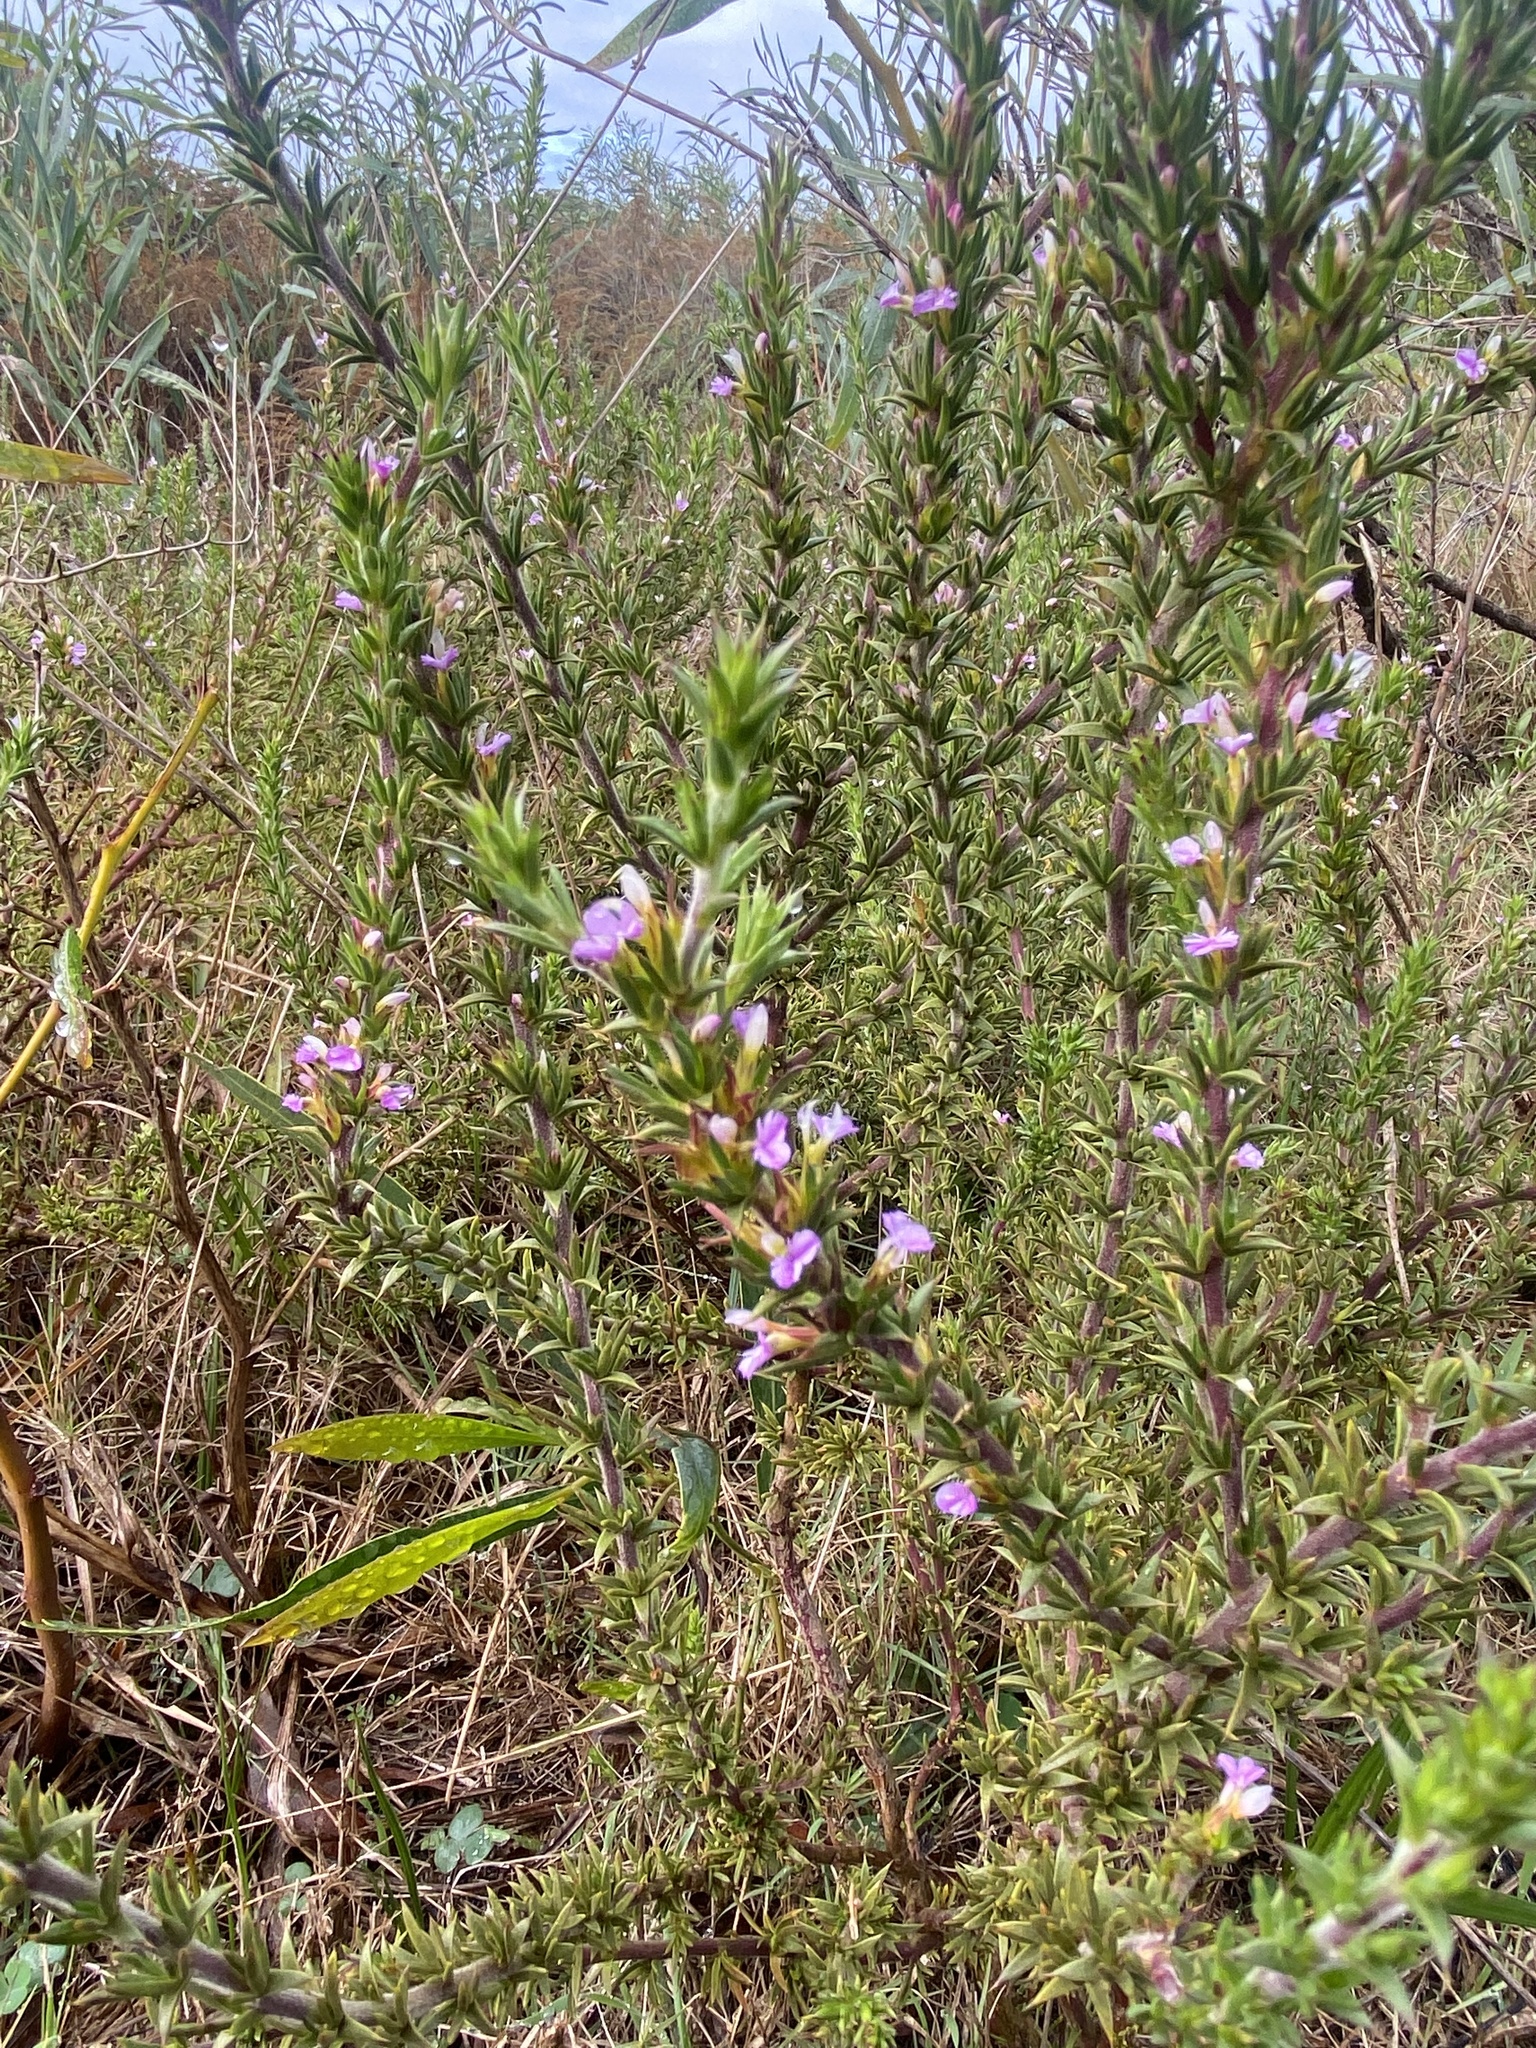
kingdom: Plantae
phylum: Tracheophyta
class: Magnoliopsida
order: Fabales
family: Polygalaceae
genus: Muraltia
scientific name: Muraltia heisteria
